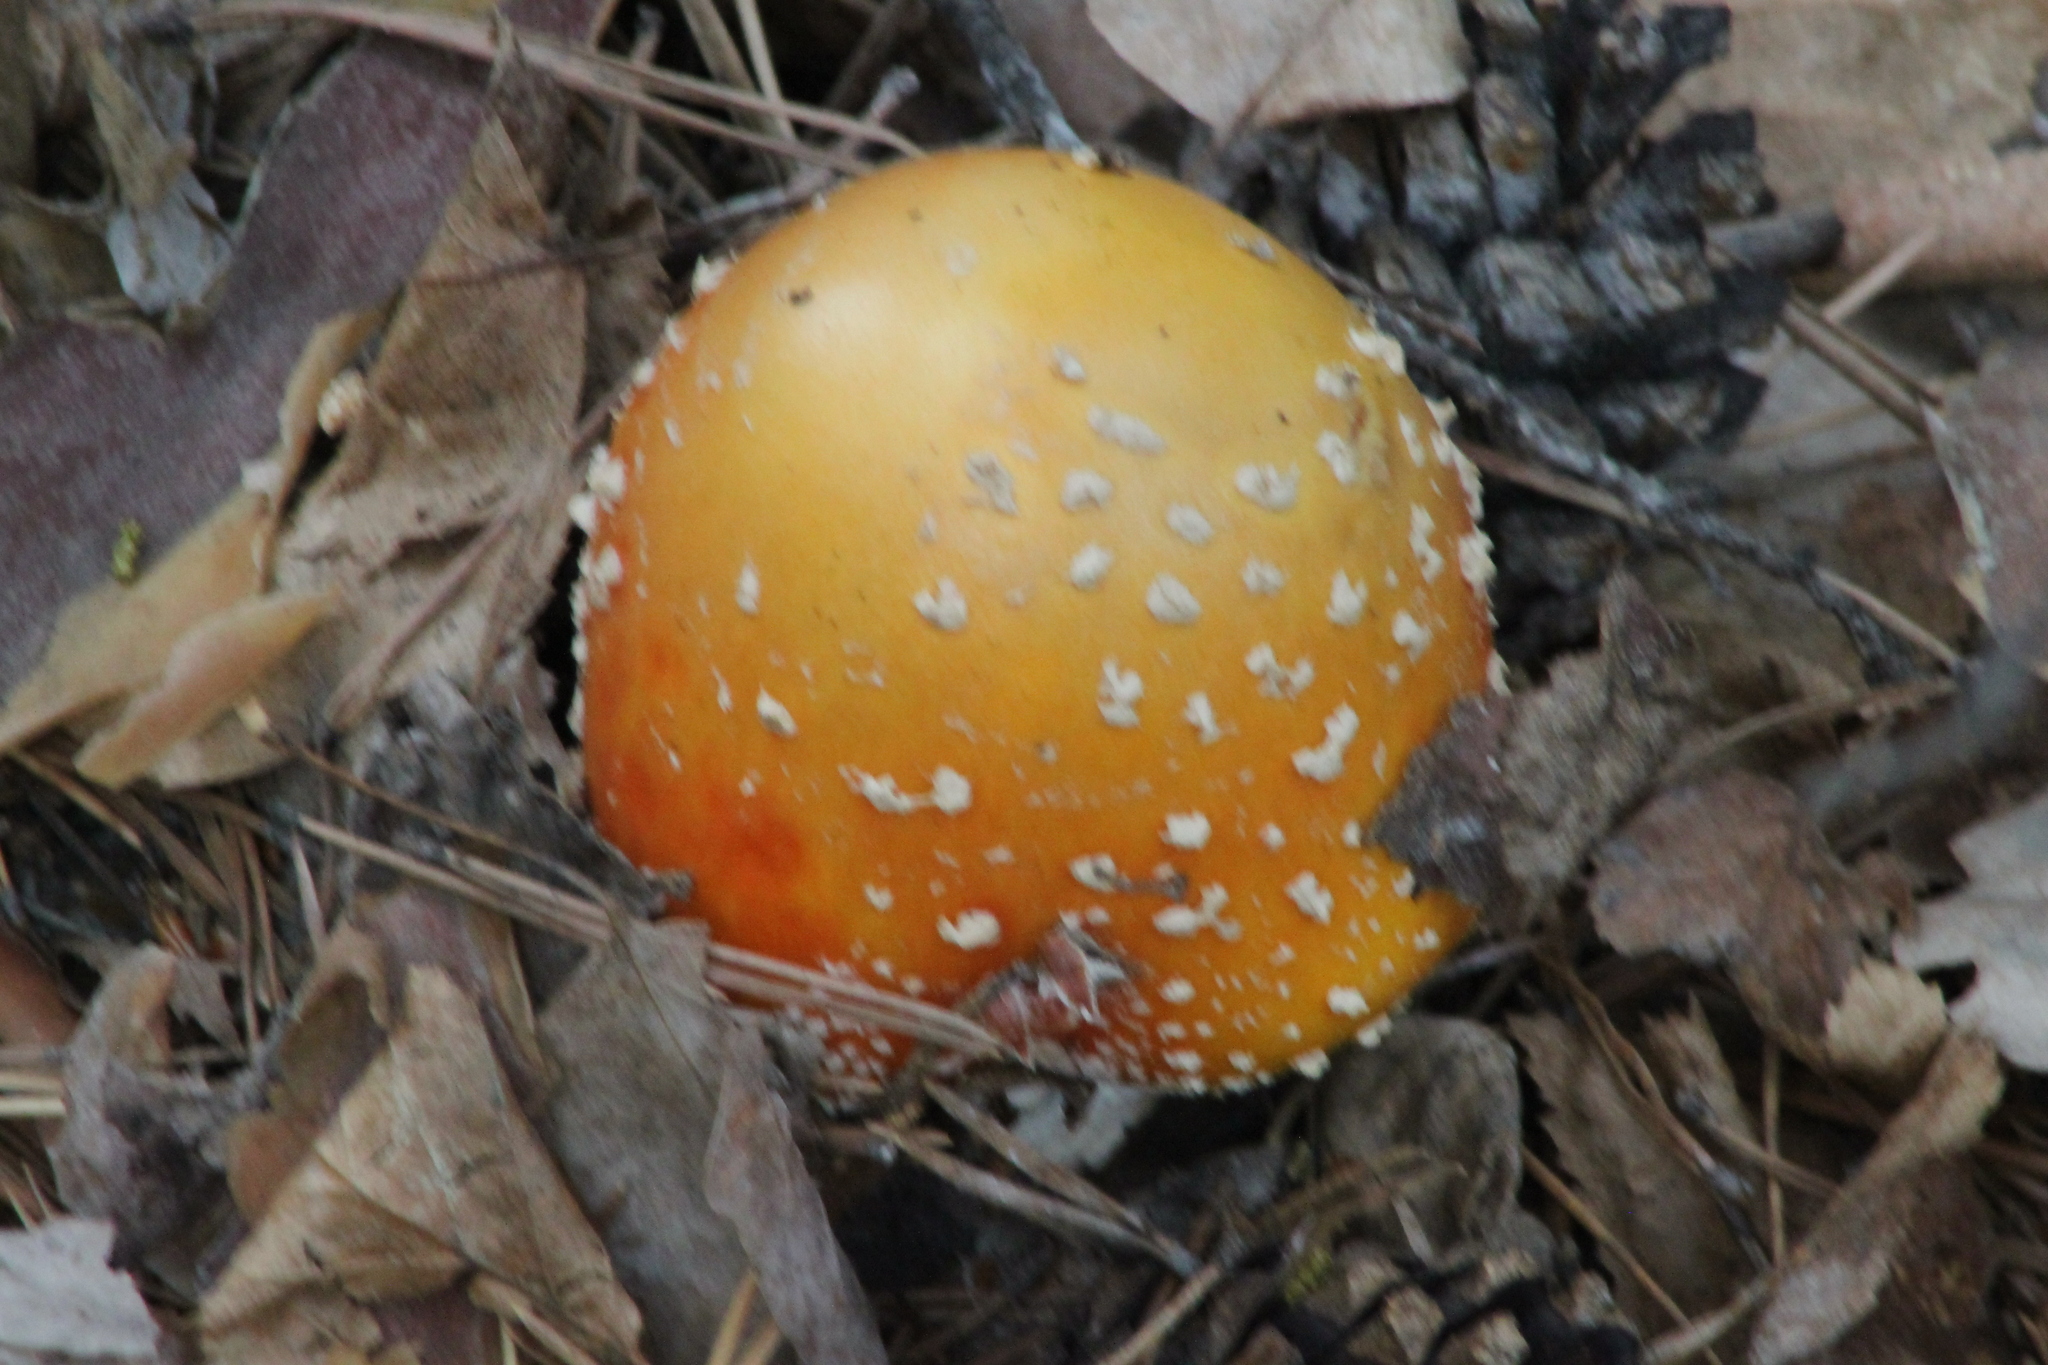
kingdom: Fungi
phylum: Basidiomycota
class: Agaricomycetes
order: Agaricales
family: Amanitaceae
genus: Amanita
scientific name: Amanita muscaria
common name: Fly agaric
